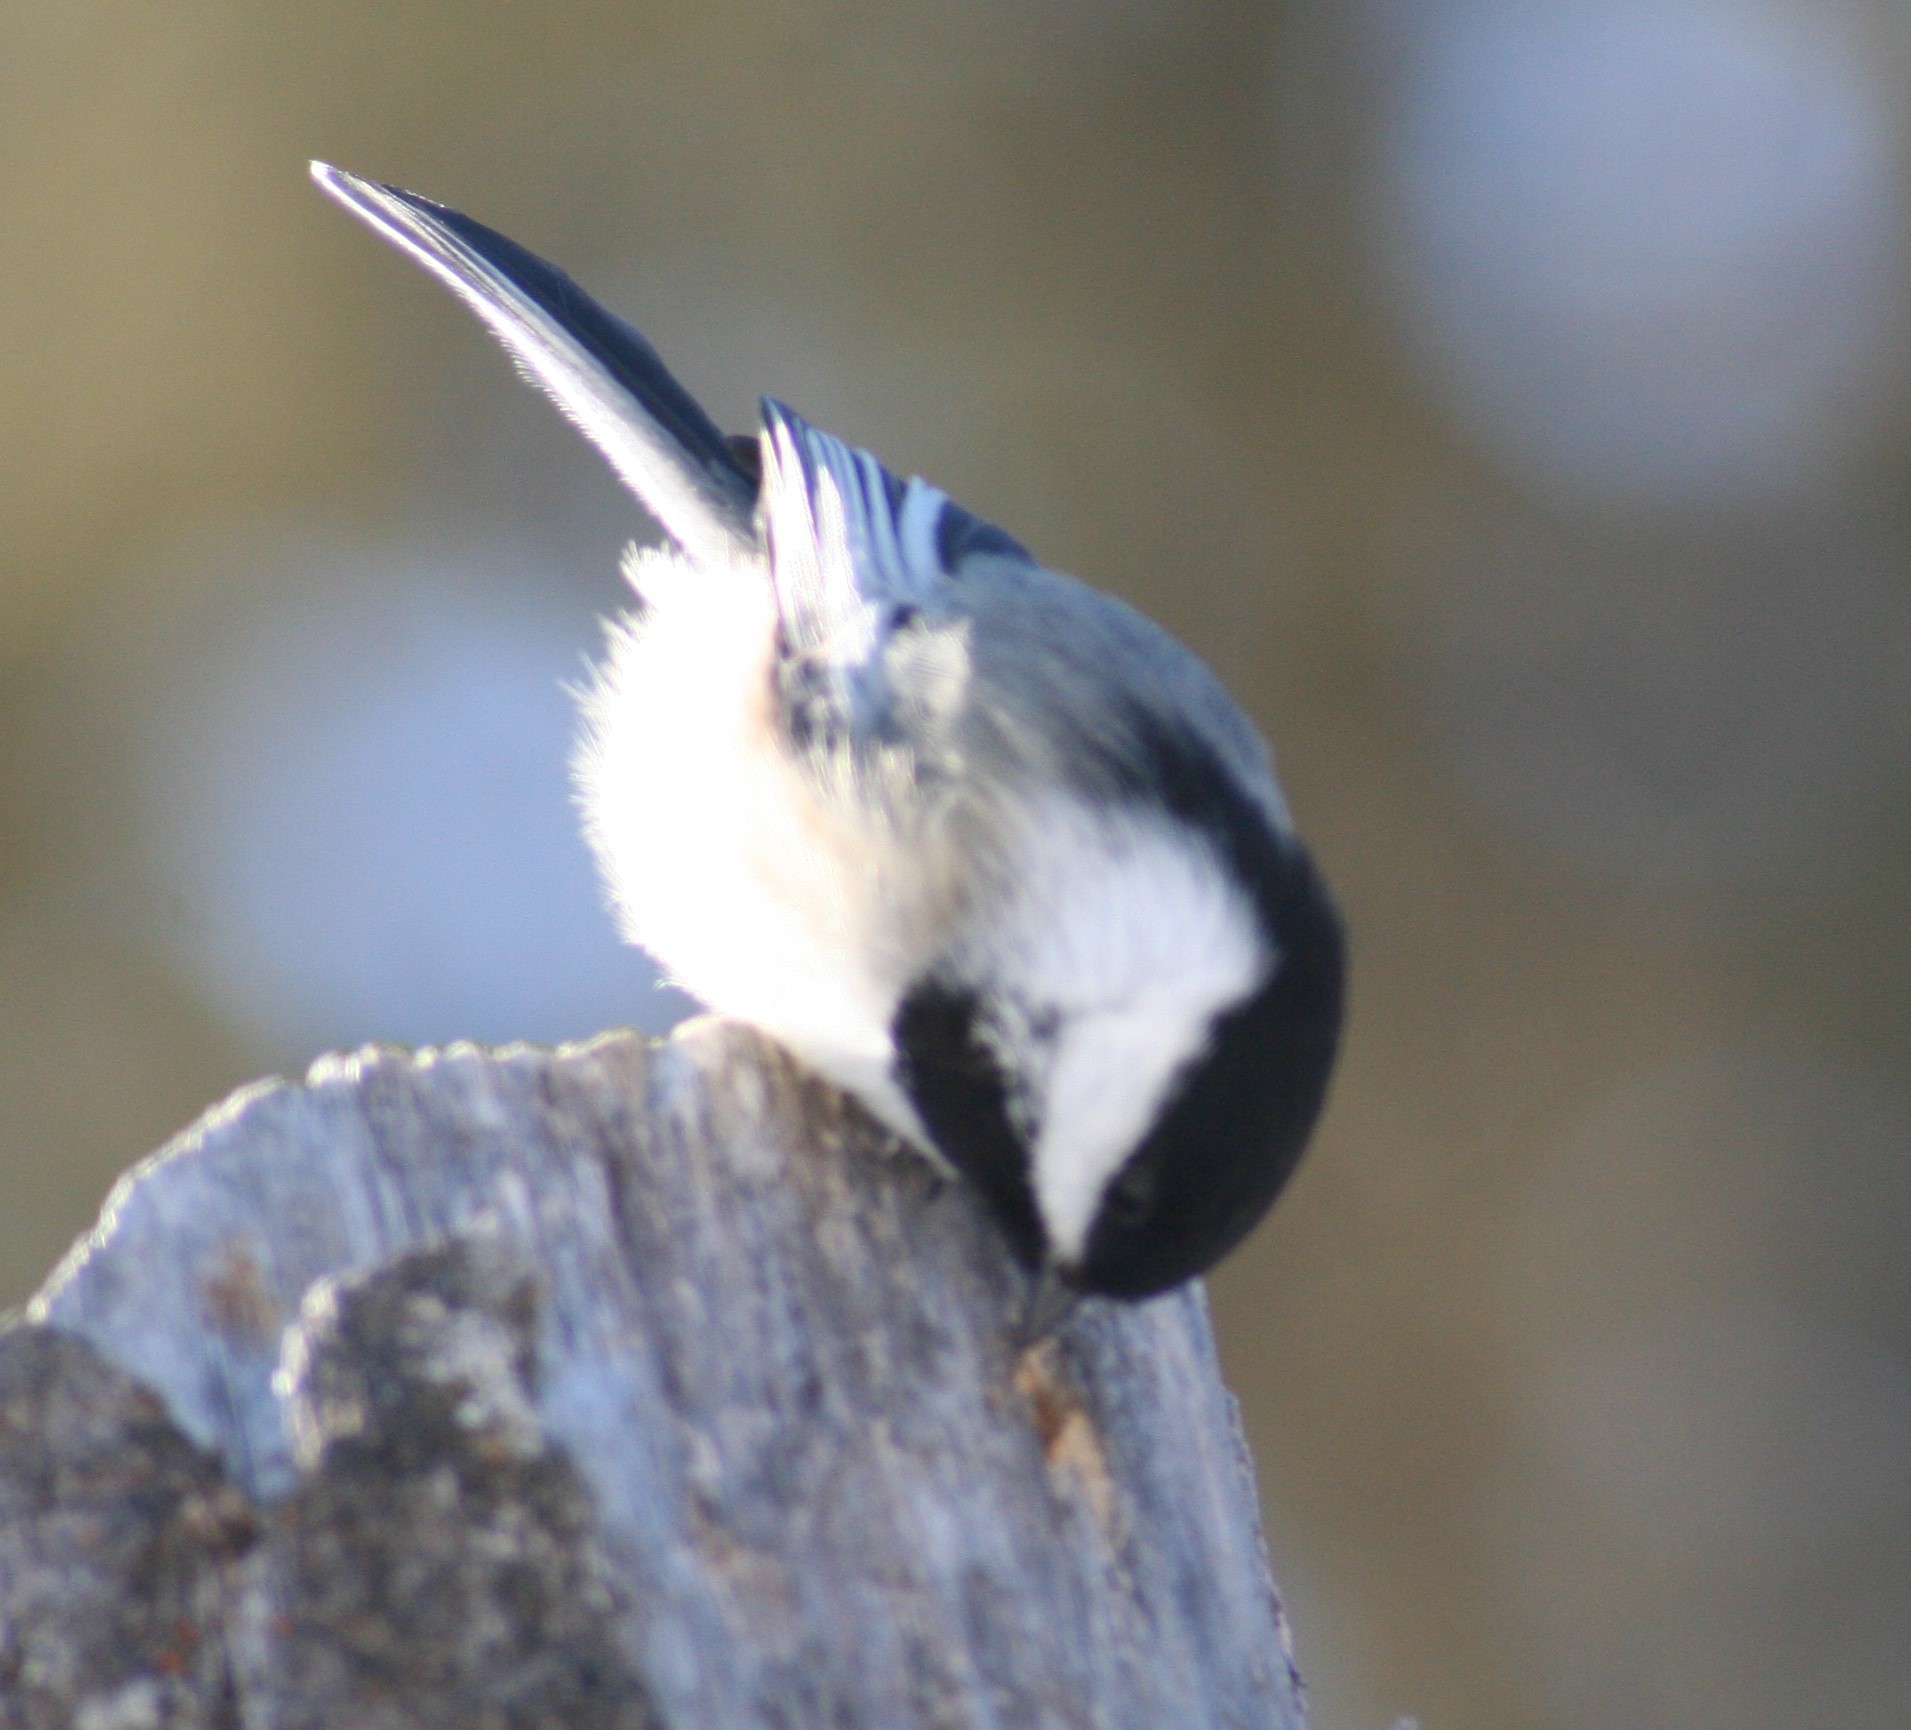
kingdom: Animalia
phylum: Chordata
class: Aves
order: Passeriformes
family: Paridae
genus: Poecile
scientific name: Poecile atricapillus
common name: Black-capped chickadee
